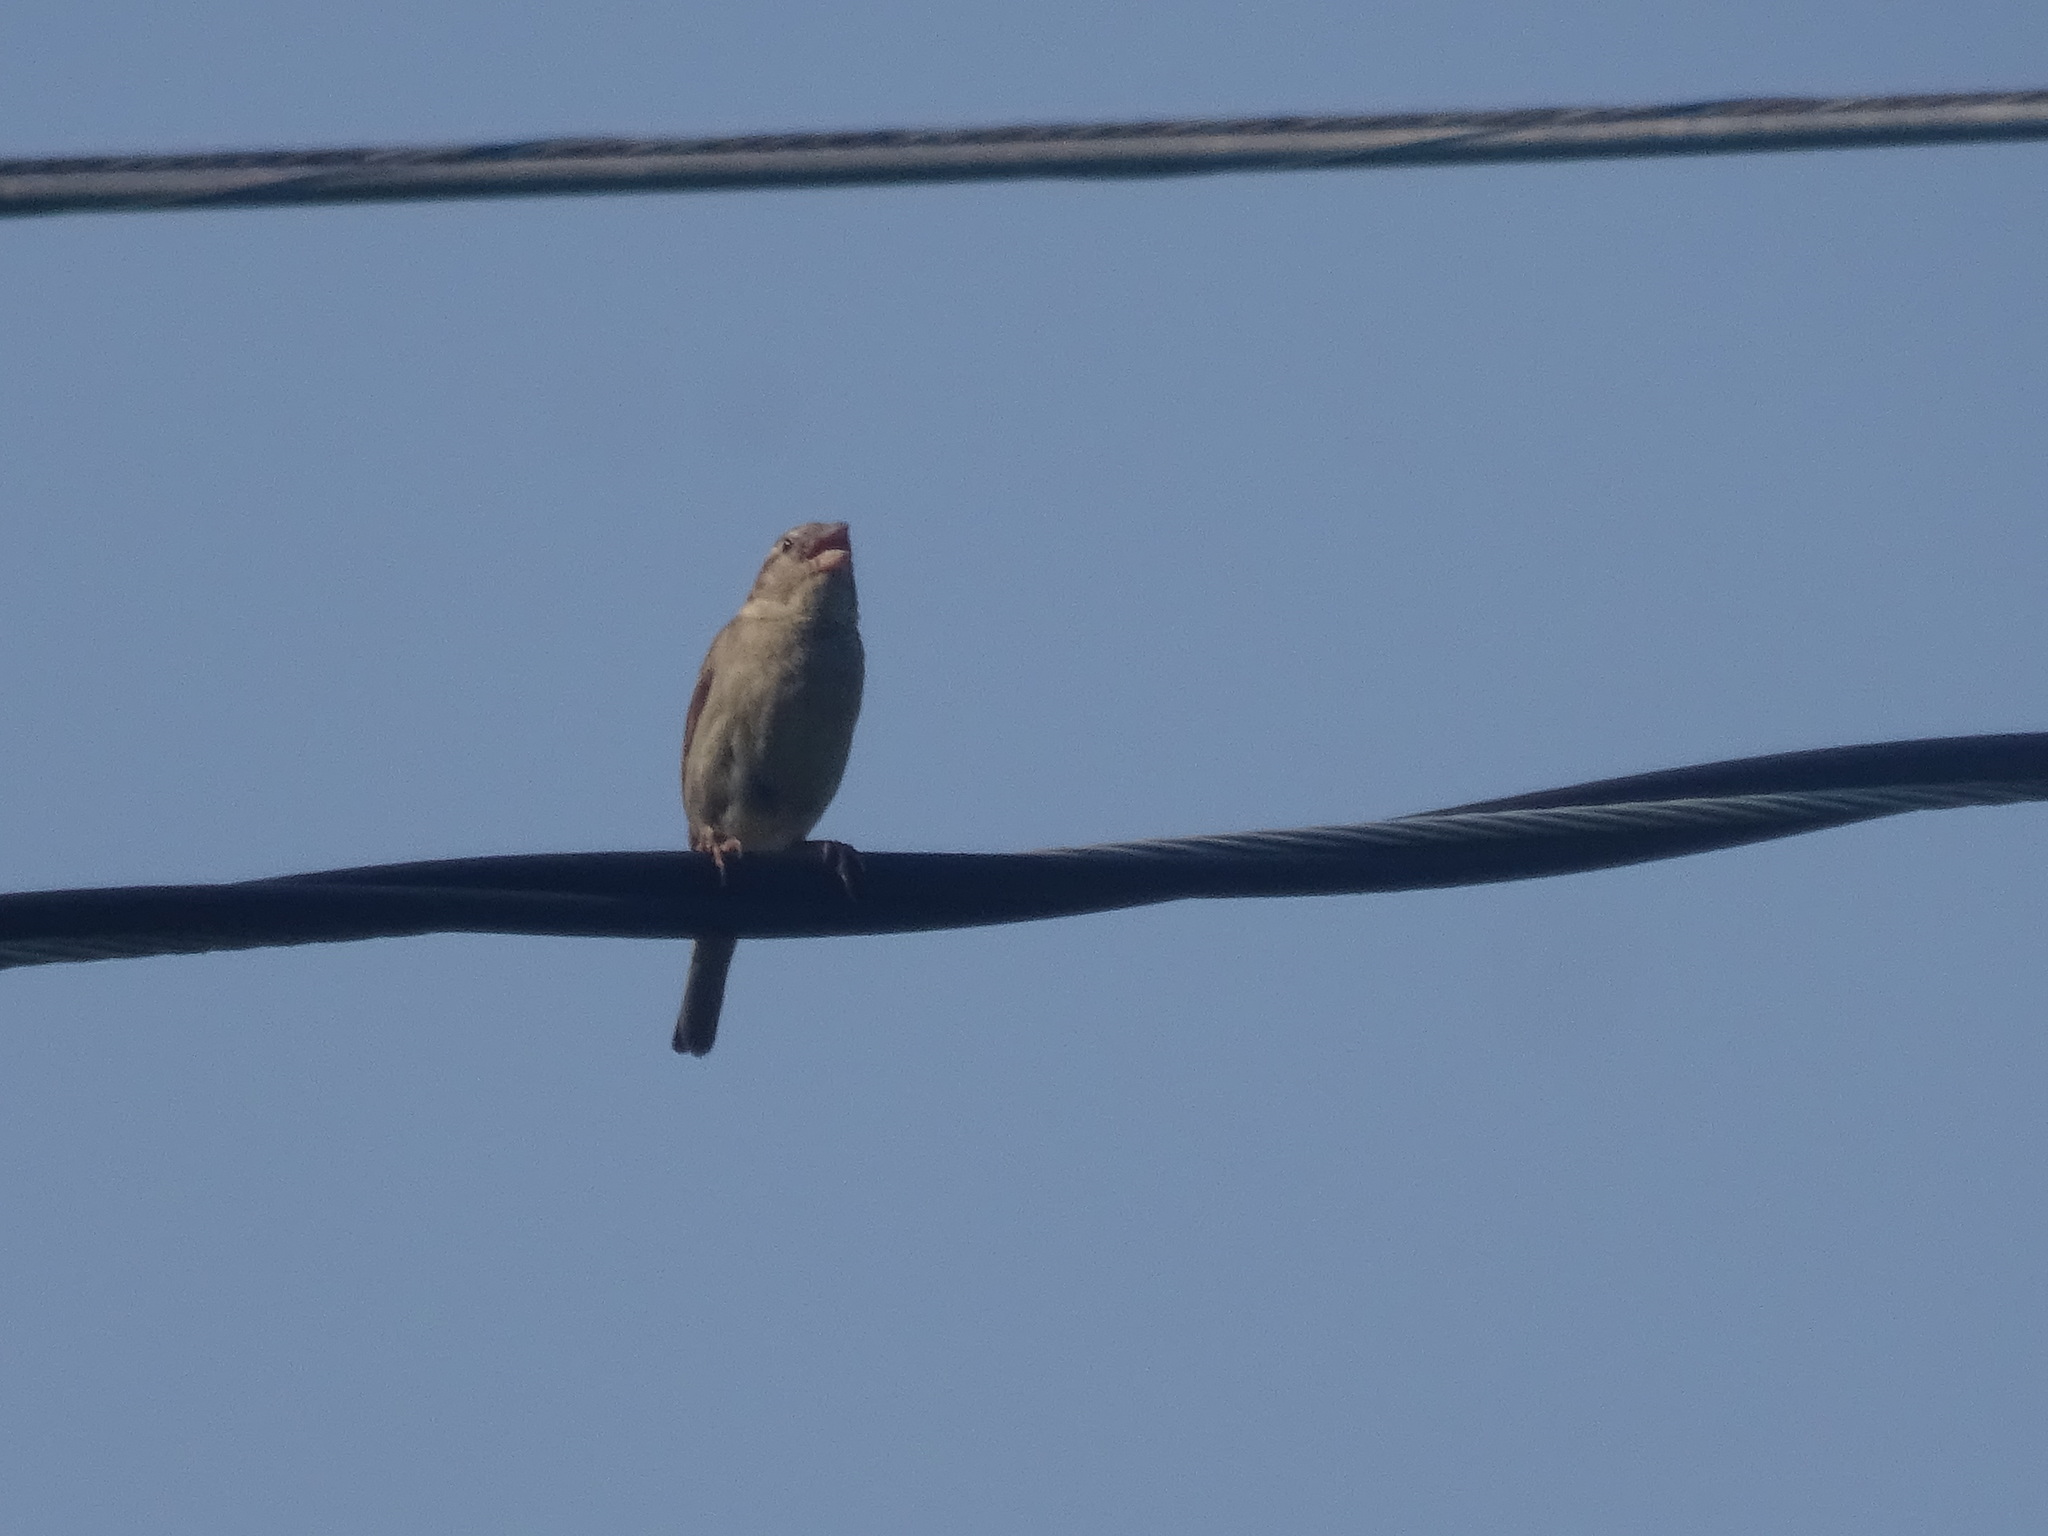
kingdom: Animalia
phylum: Chordata
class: Aves
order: Passeriformes
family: Passeridae
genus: Passer
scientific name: Passer domesticus
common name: House sparrow
